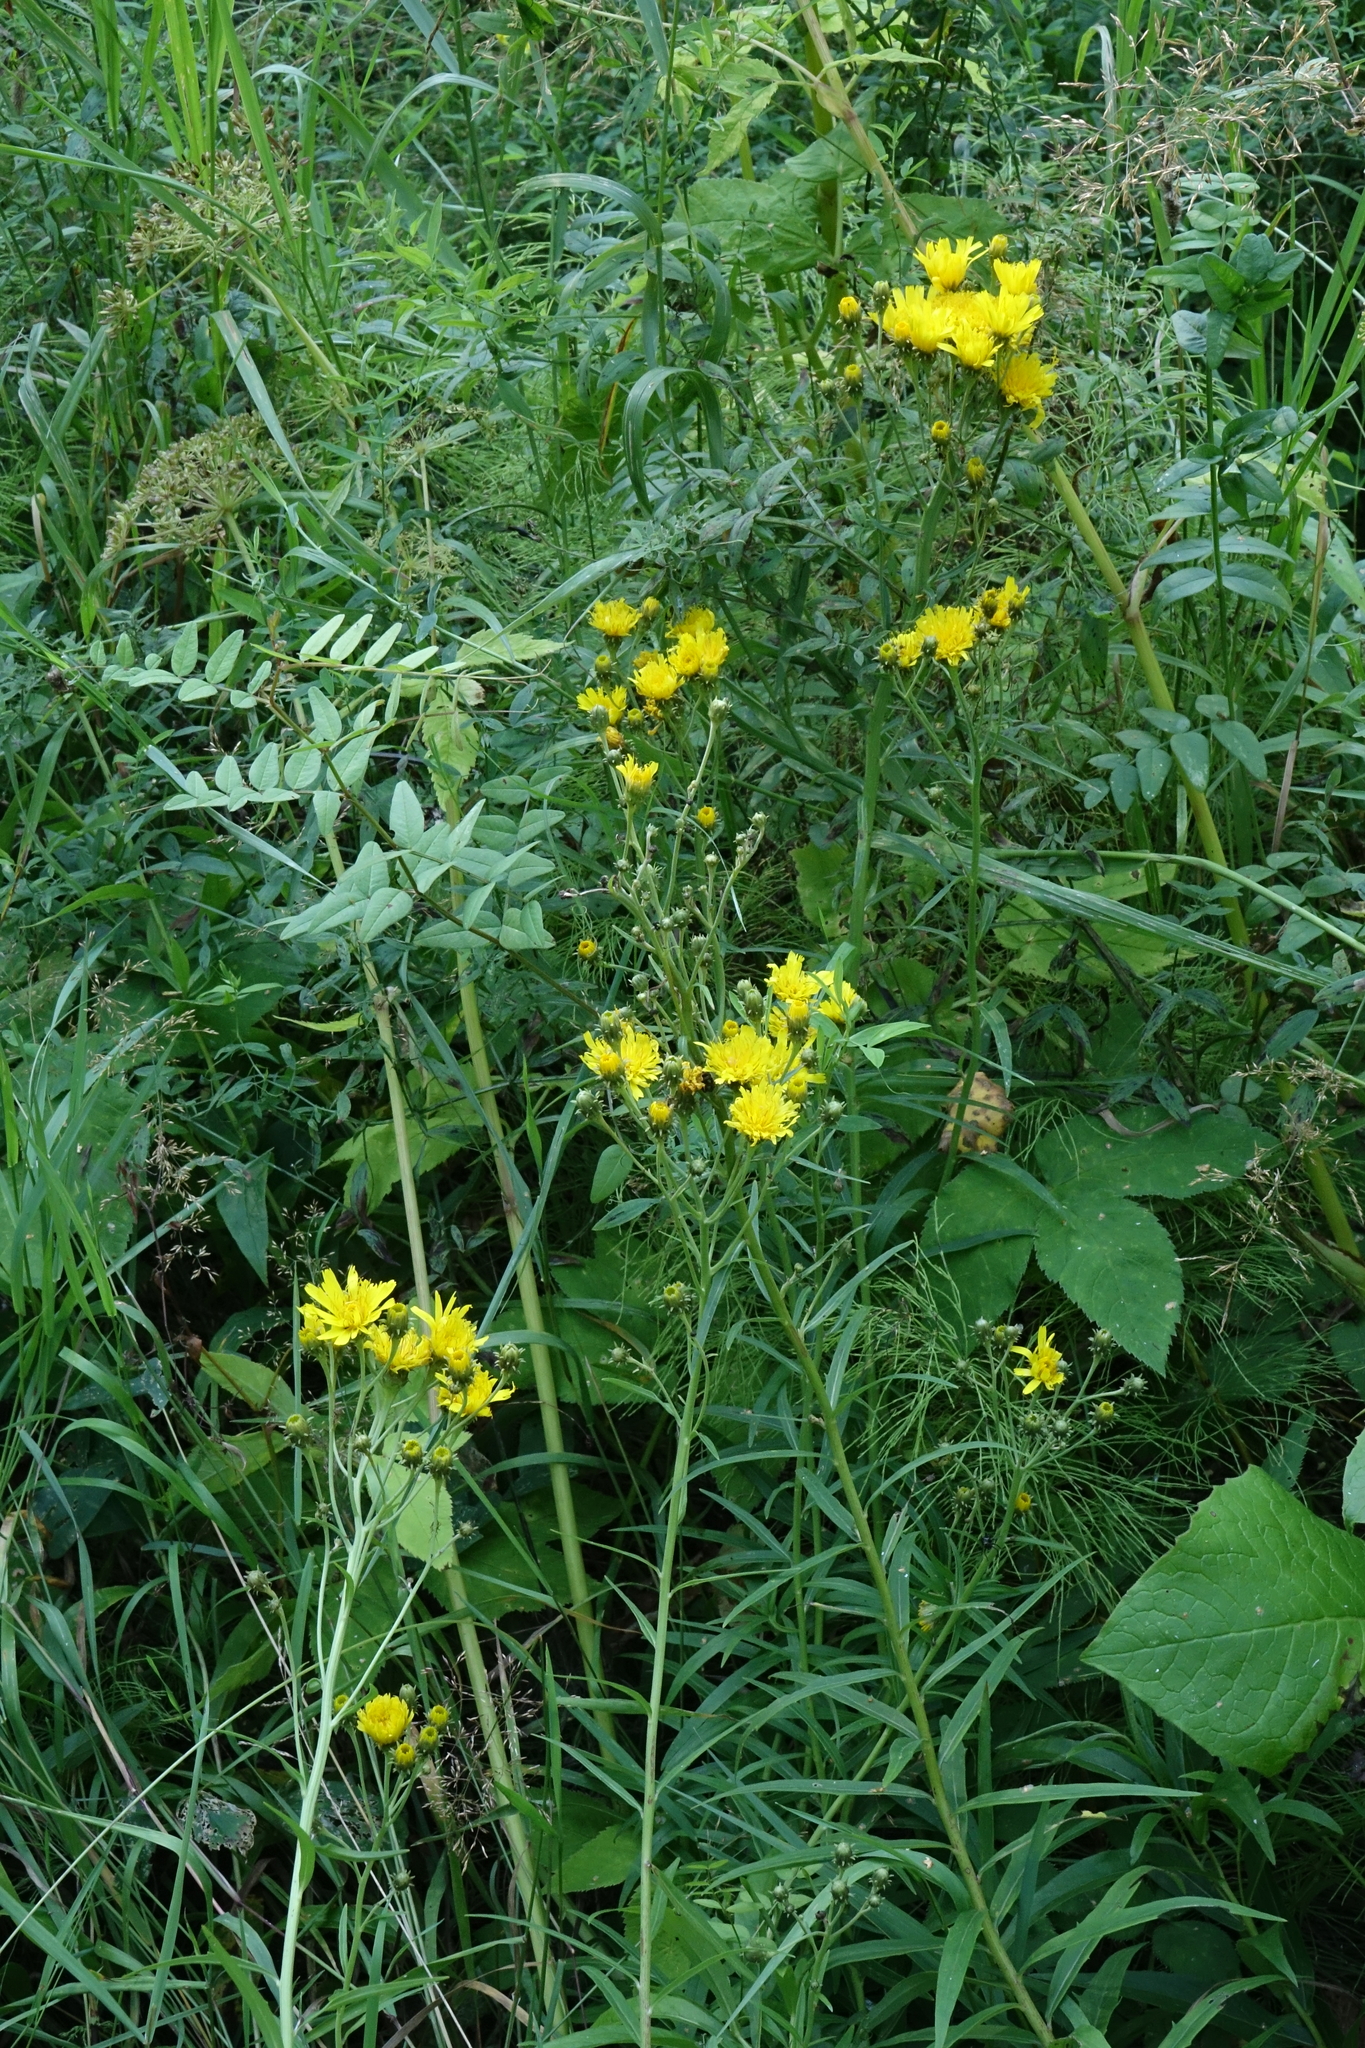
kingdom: Plantae
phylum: Tracheophyta
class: Magnoliopsida
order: Asterales
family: Asteraceae
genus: Hieracium
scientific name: Hieracium umbellatum
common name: Northern hawkweed
